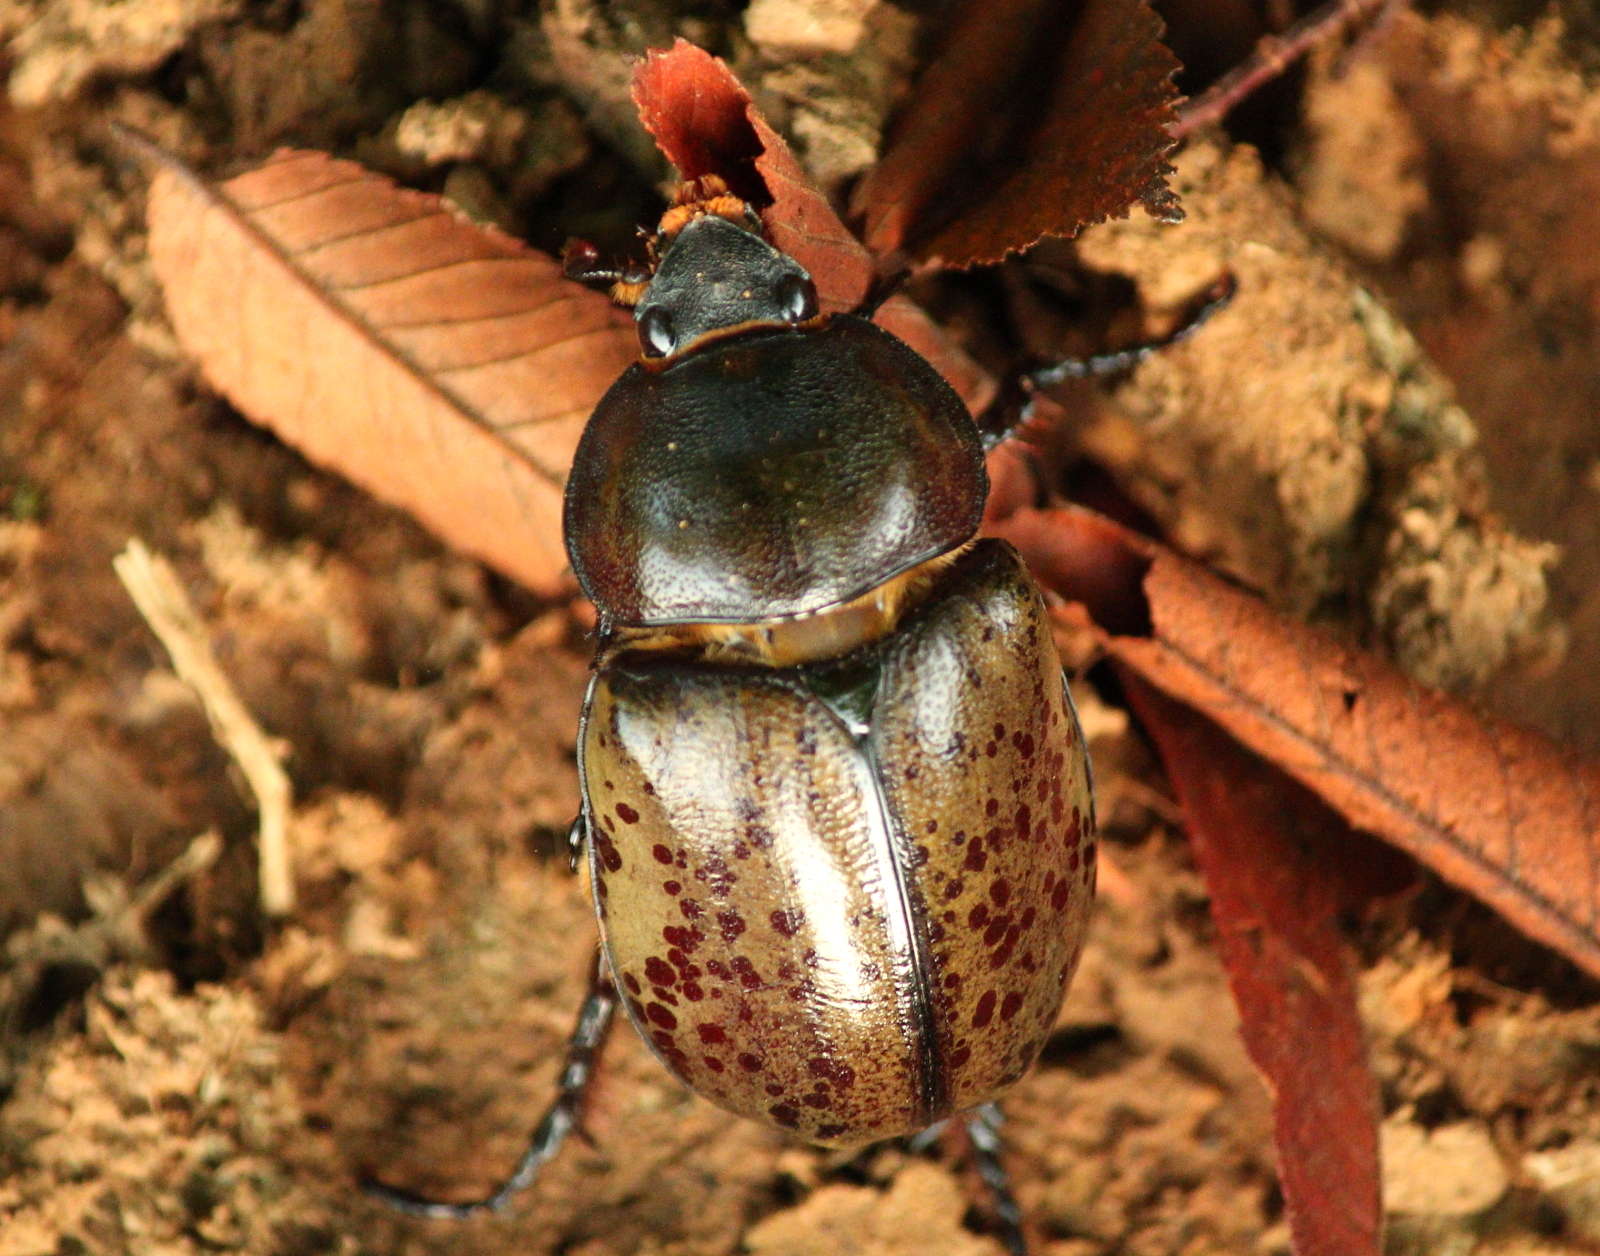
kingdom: Animalia
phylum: Arthropoda
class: Insecta
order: Coleoptera
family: Scarabaeidae
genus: Dynastes
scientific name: Dynastes tityus
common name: Eastern hercules beetle
